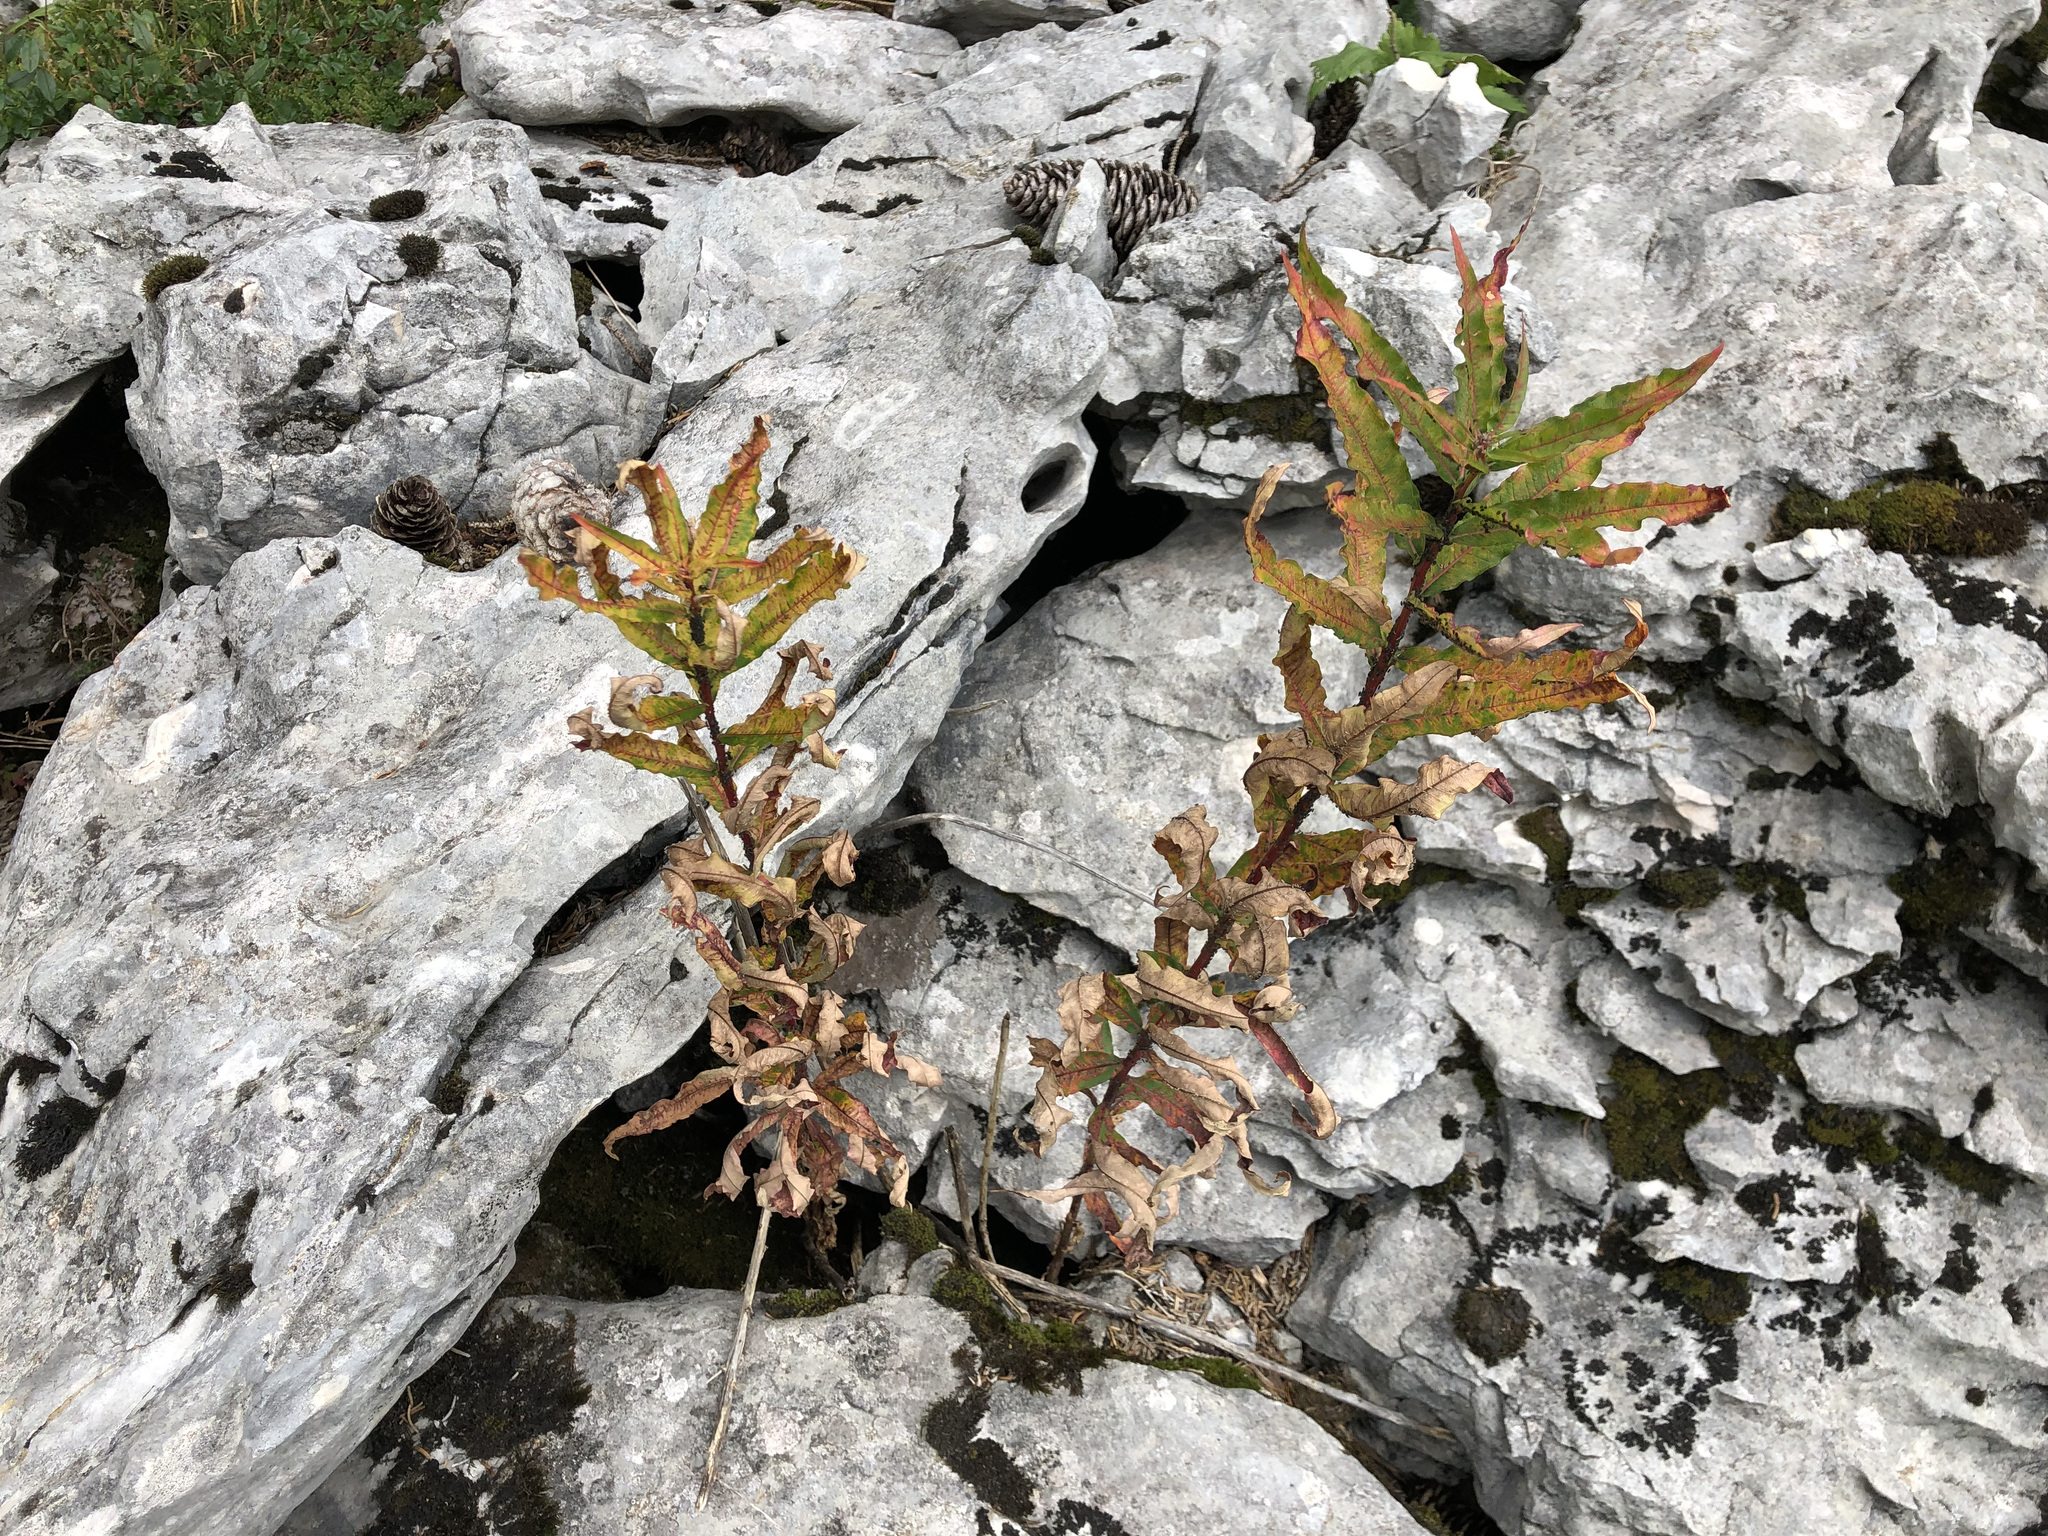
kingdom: Plantae
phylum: Tracheophyta
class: Magnoliopsida
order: Myrtales
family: Onagraceae
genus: Chamaenerion
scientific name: Chamaenerion angustifolium
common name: Fireweed
